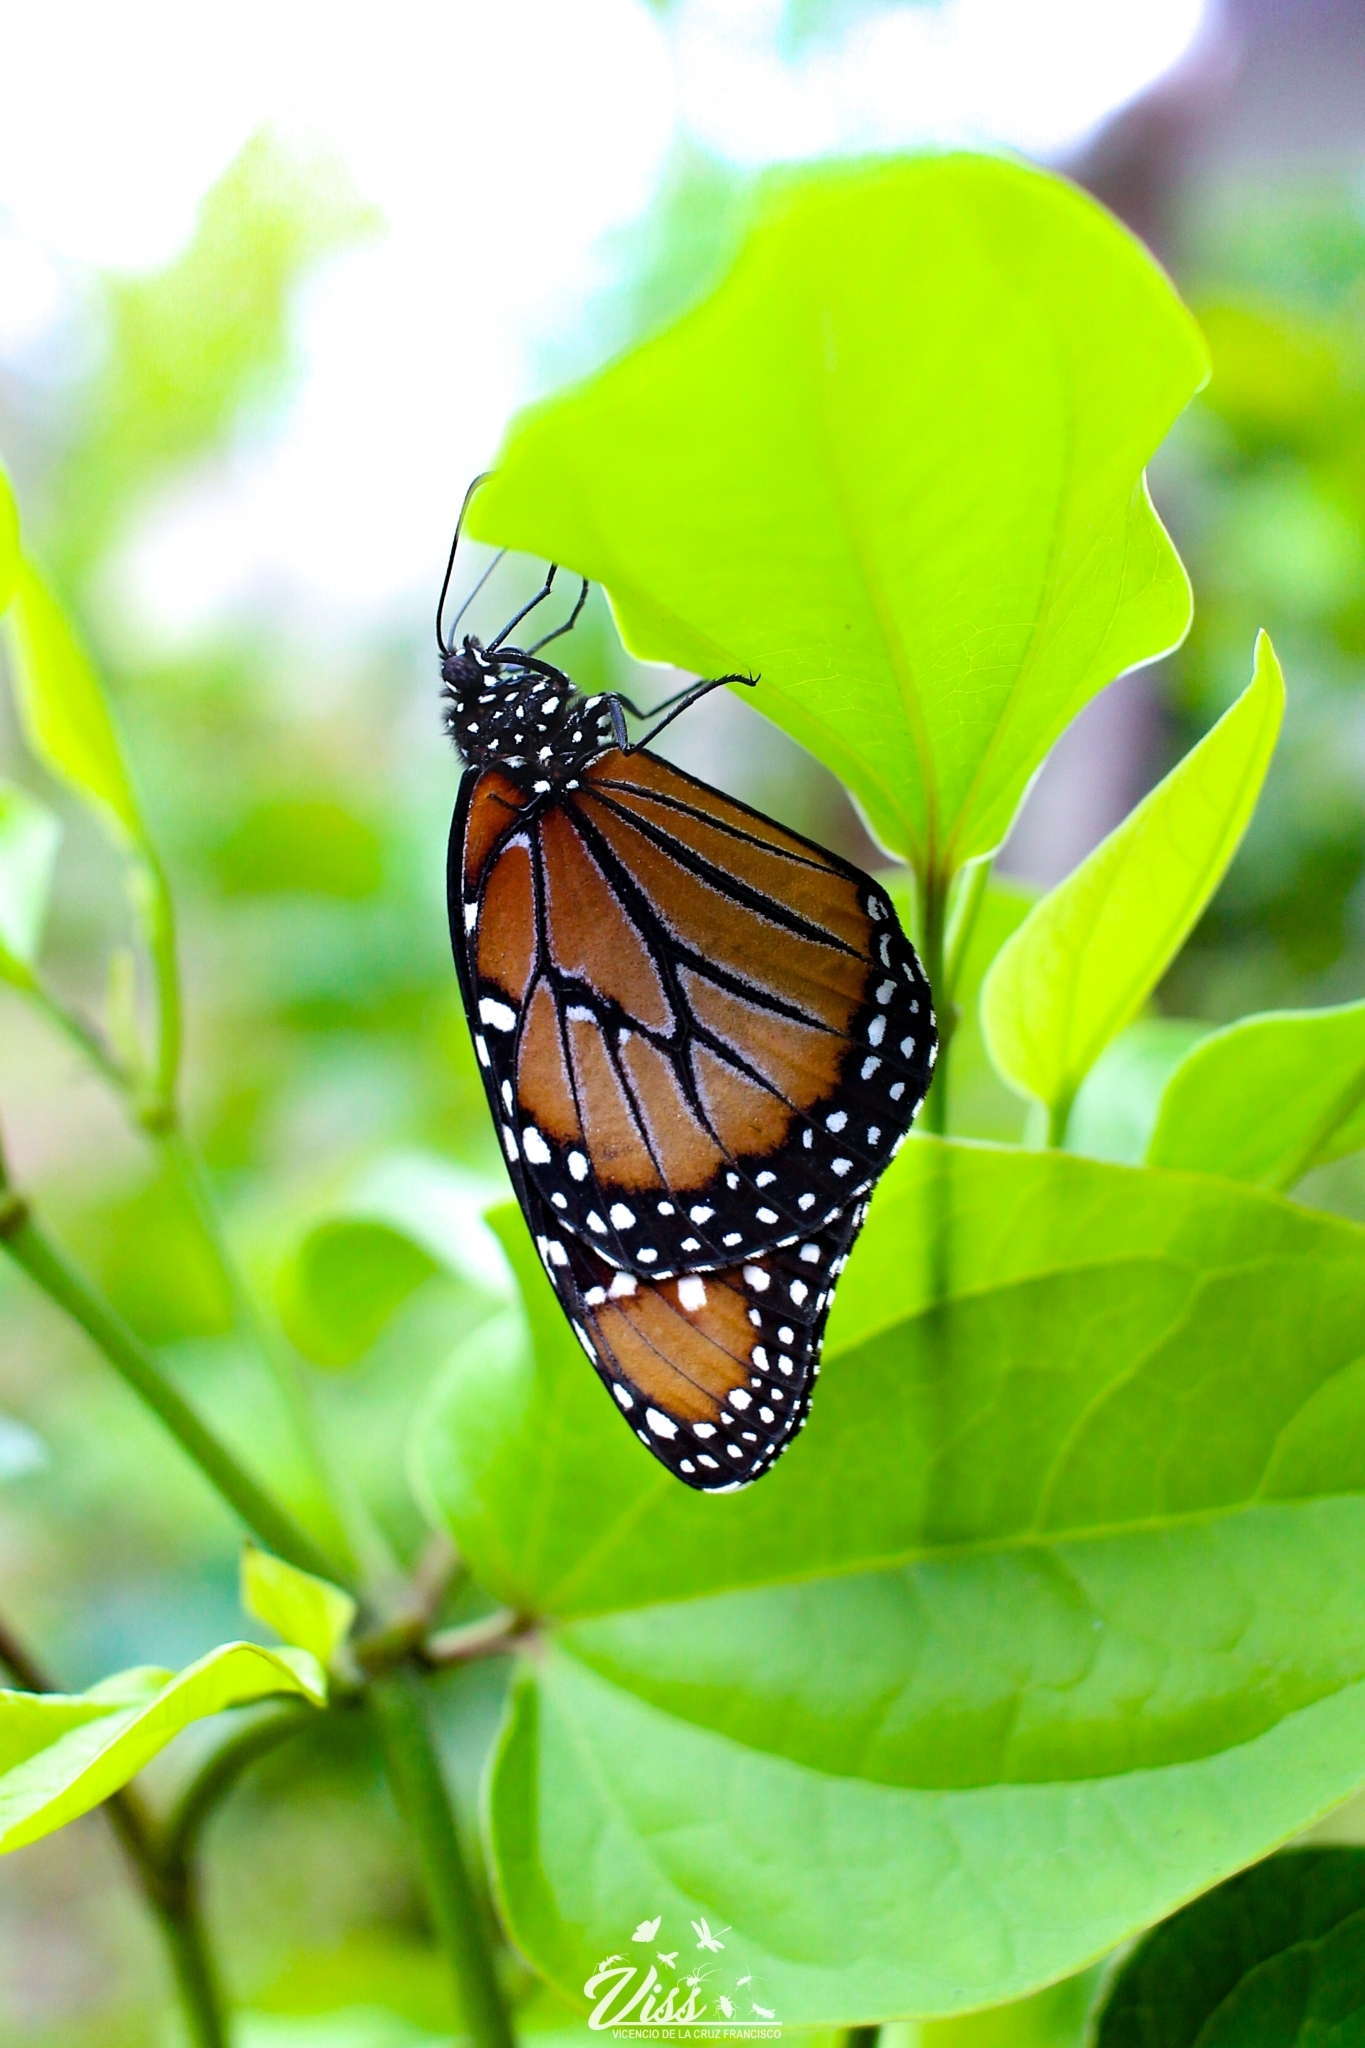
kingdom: Animalia
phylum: Arthropoda
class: Insecta
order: Lepidoptera
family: Nymphalidae
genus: Danaus
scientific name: Danaus gilippus
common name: Queen
